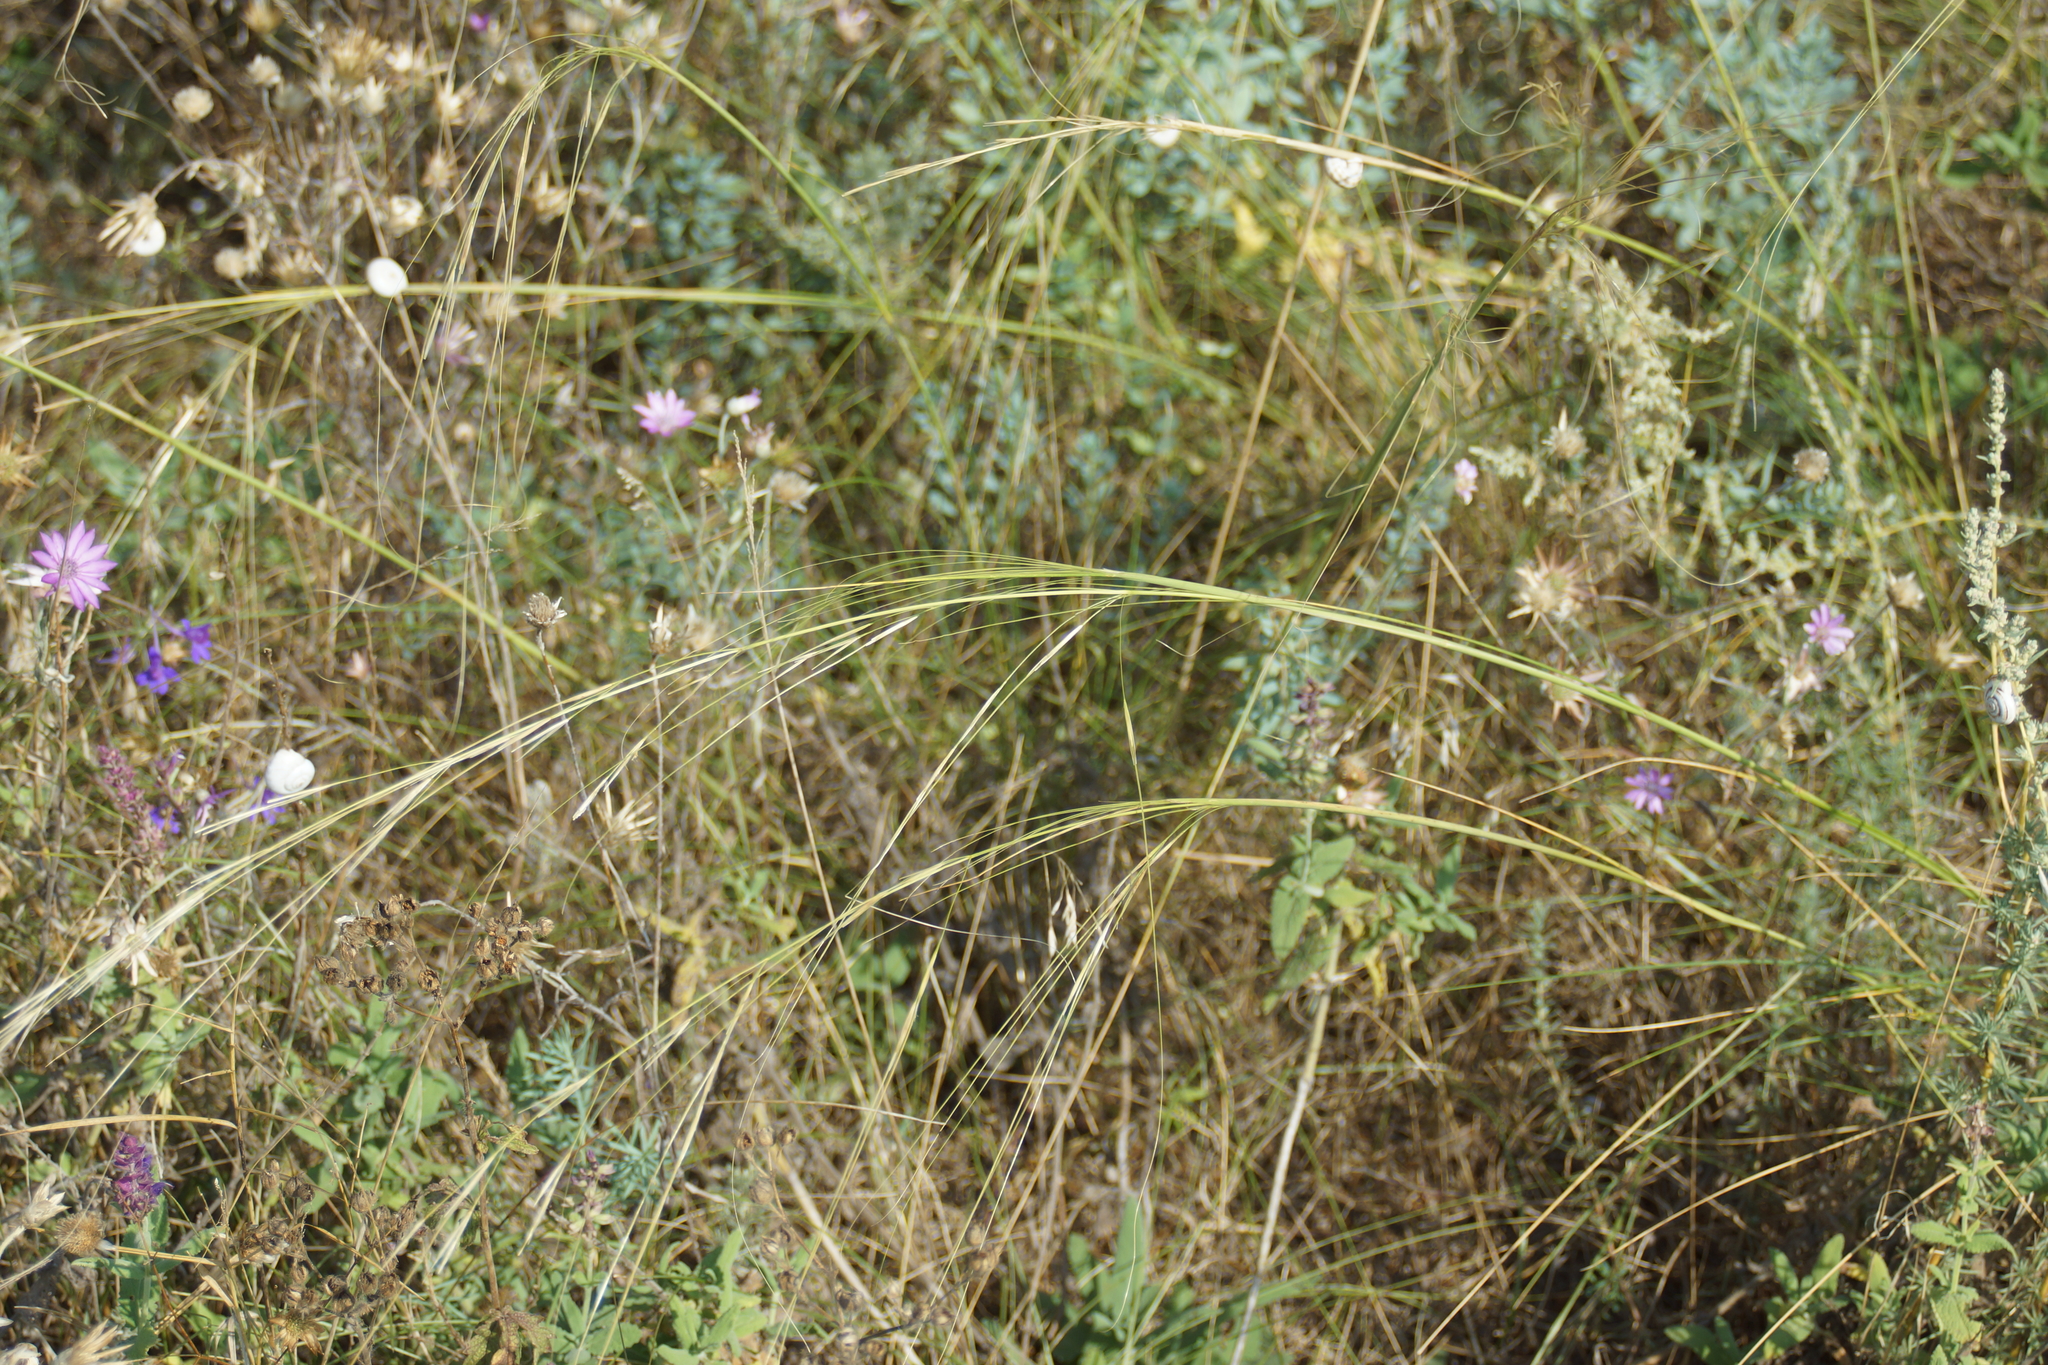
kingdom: Plantae
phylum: Tracheophyta
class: Liliopsida
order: Poales
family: Poaceae
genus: Stipa
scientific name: Stipa capillata
